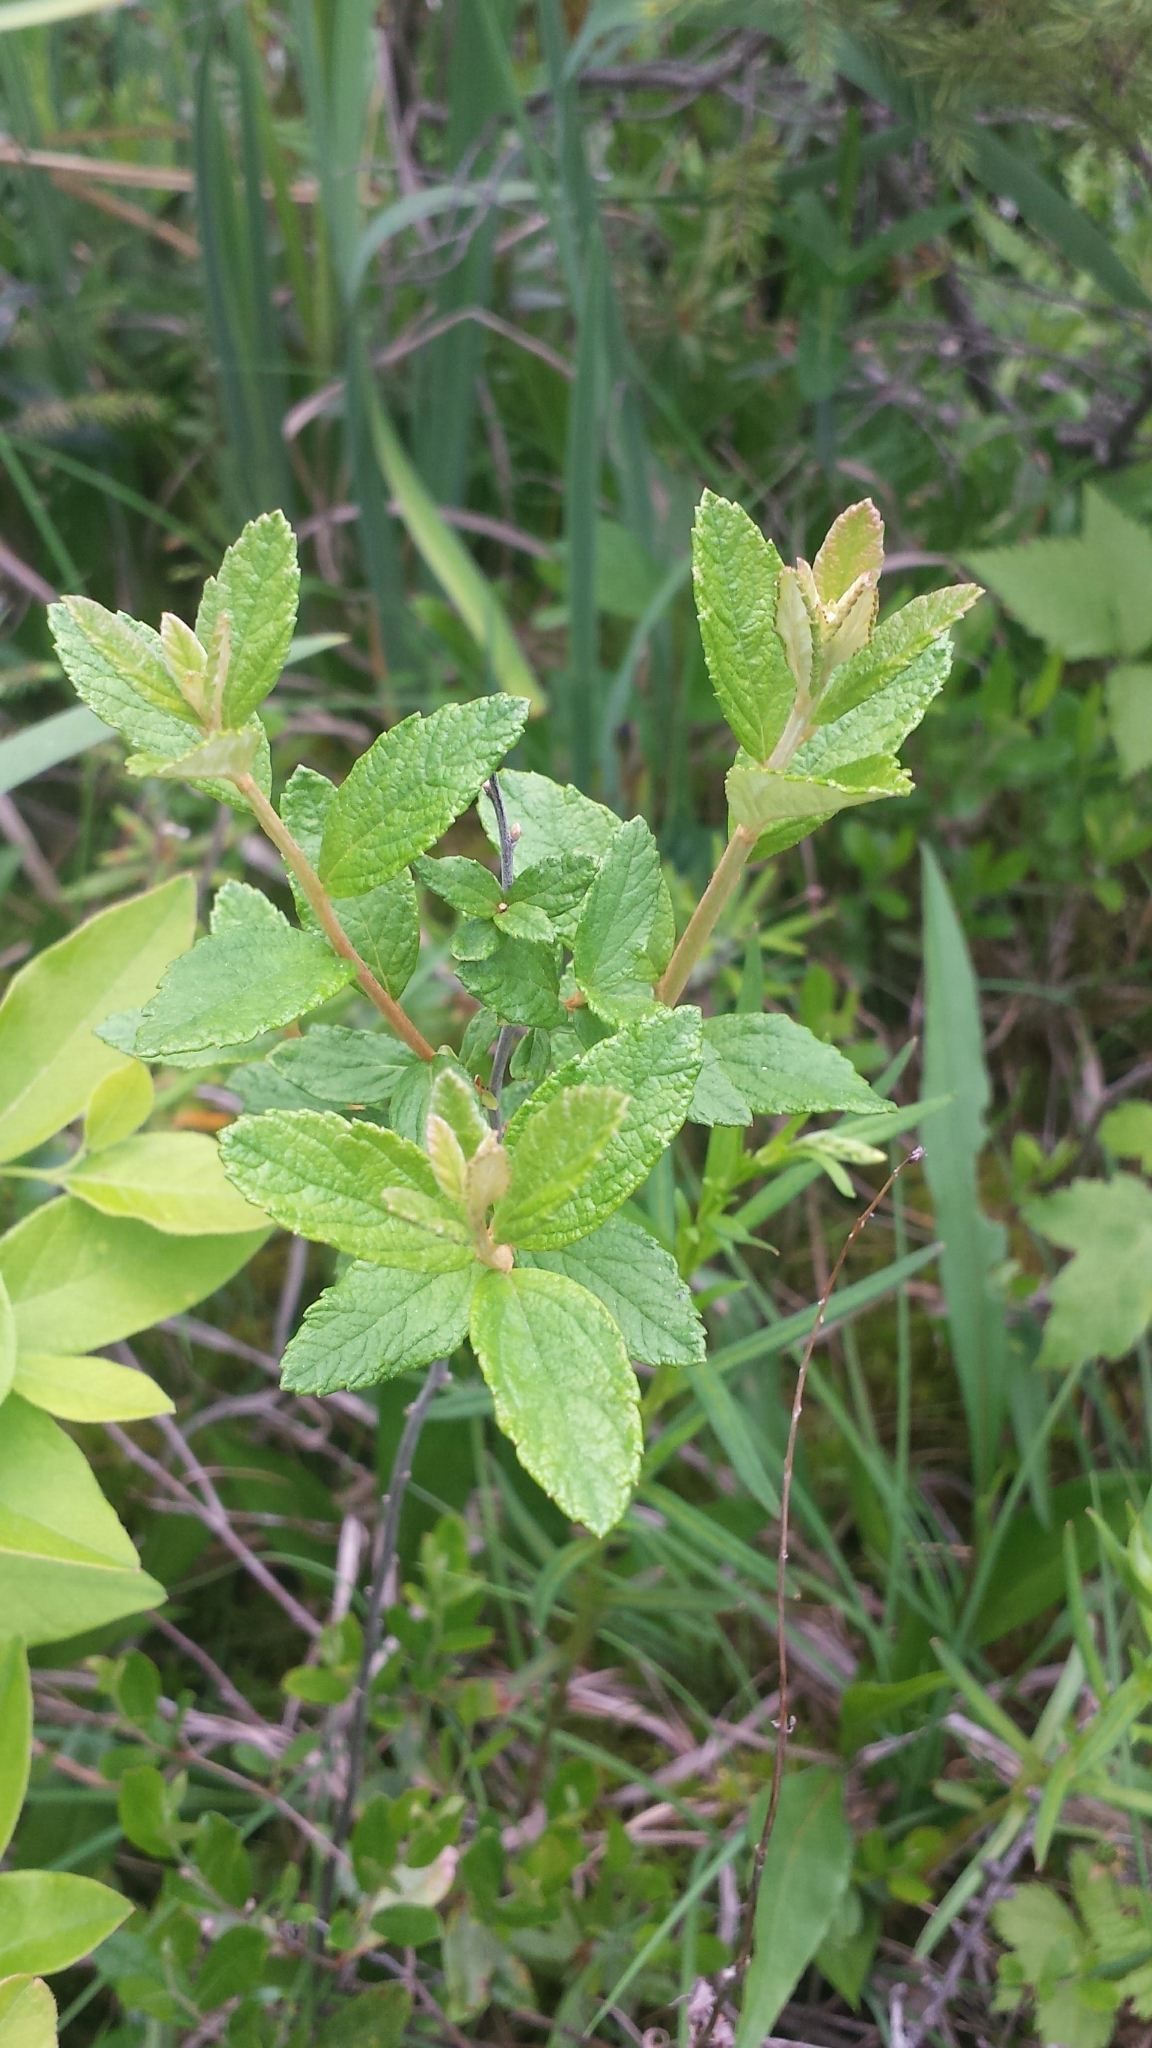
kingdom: Plantae
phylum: Tracheophyta
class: Magnoliopsida
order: Rosales
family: Rosaceae
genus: Spiraea
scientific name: Spiraea tomentosa
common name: Hardhack
